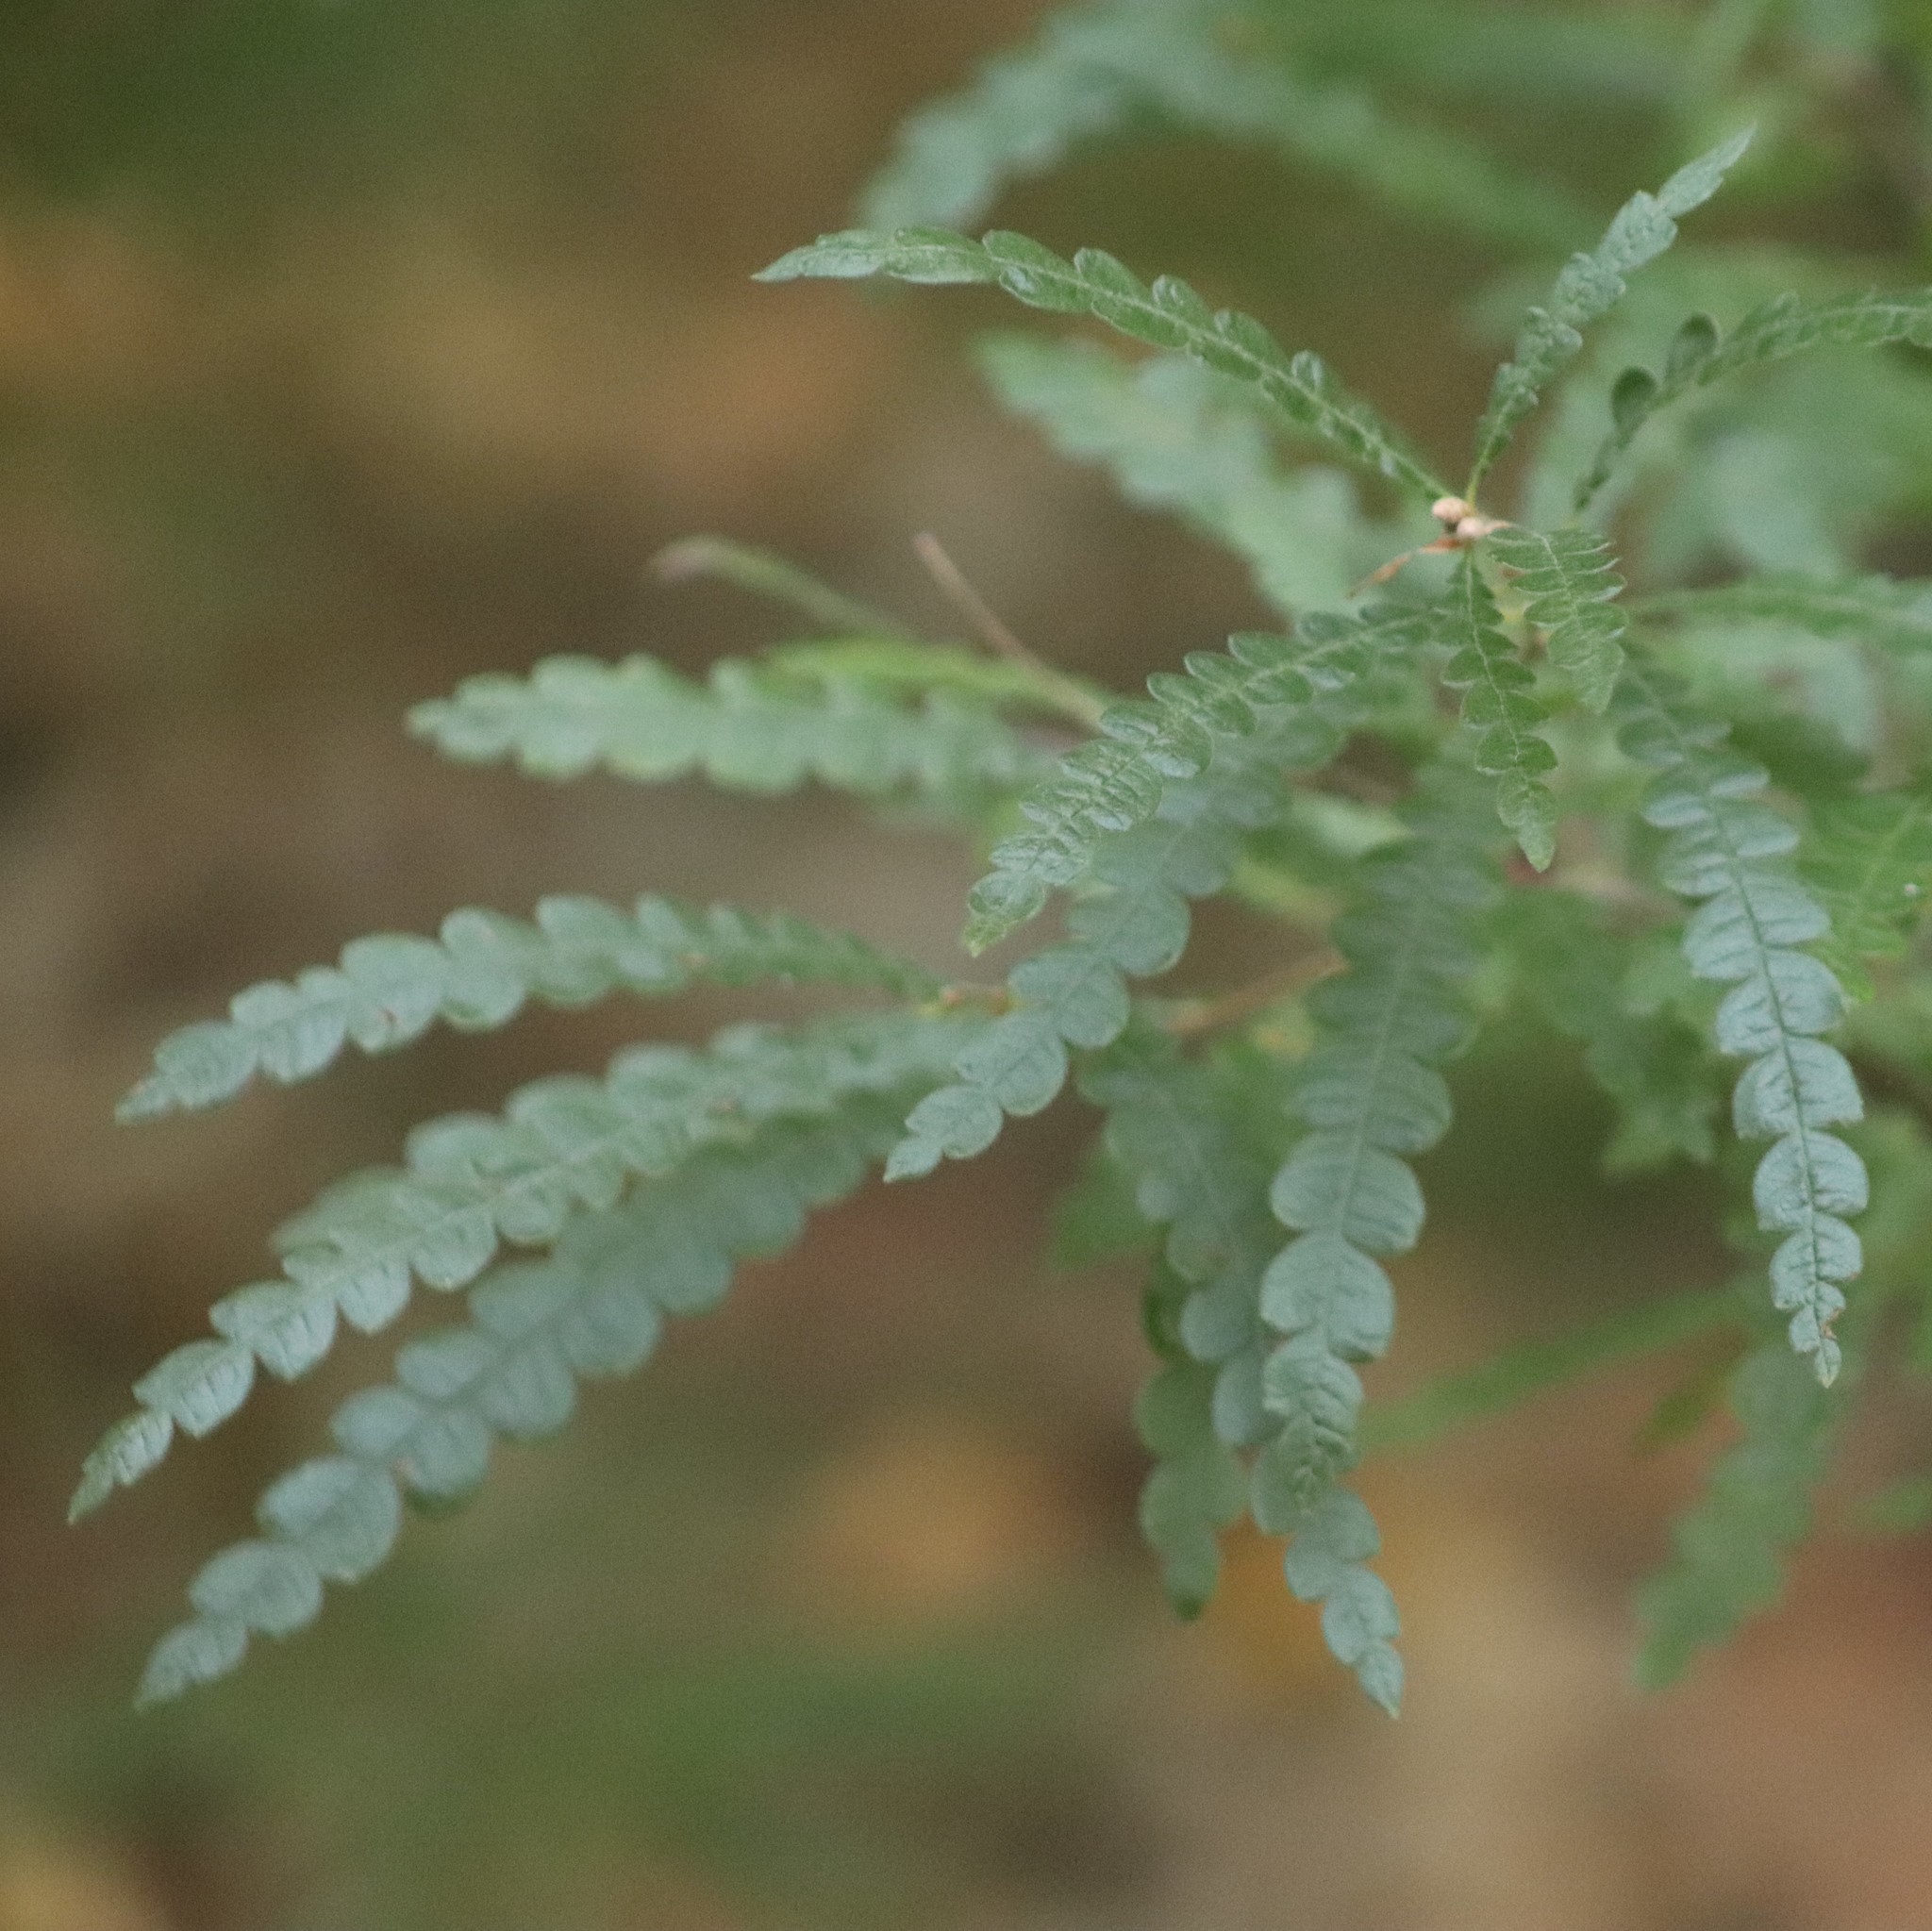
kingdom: Plantae
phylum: Tracheophyta
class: Magnoliopsida
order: Fagales
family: Myricaceae
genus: Comptonia
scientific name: Comptonia peregrina
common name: Sweet-fern
